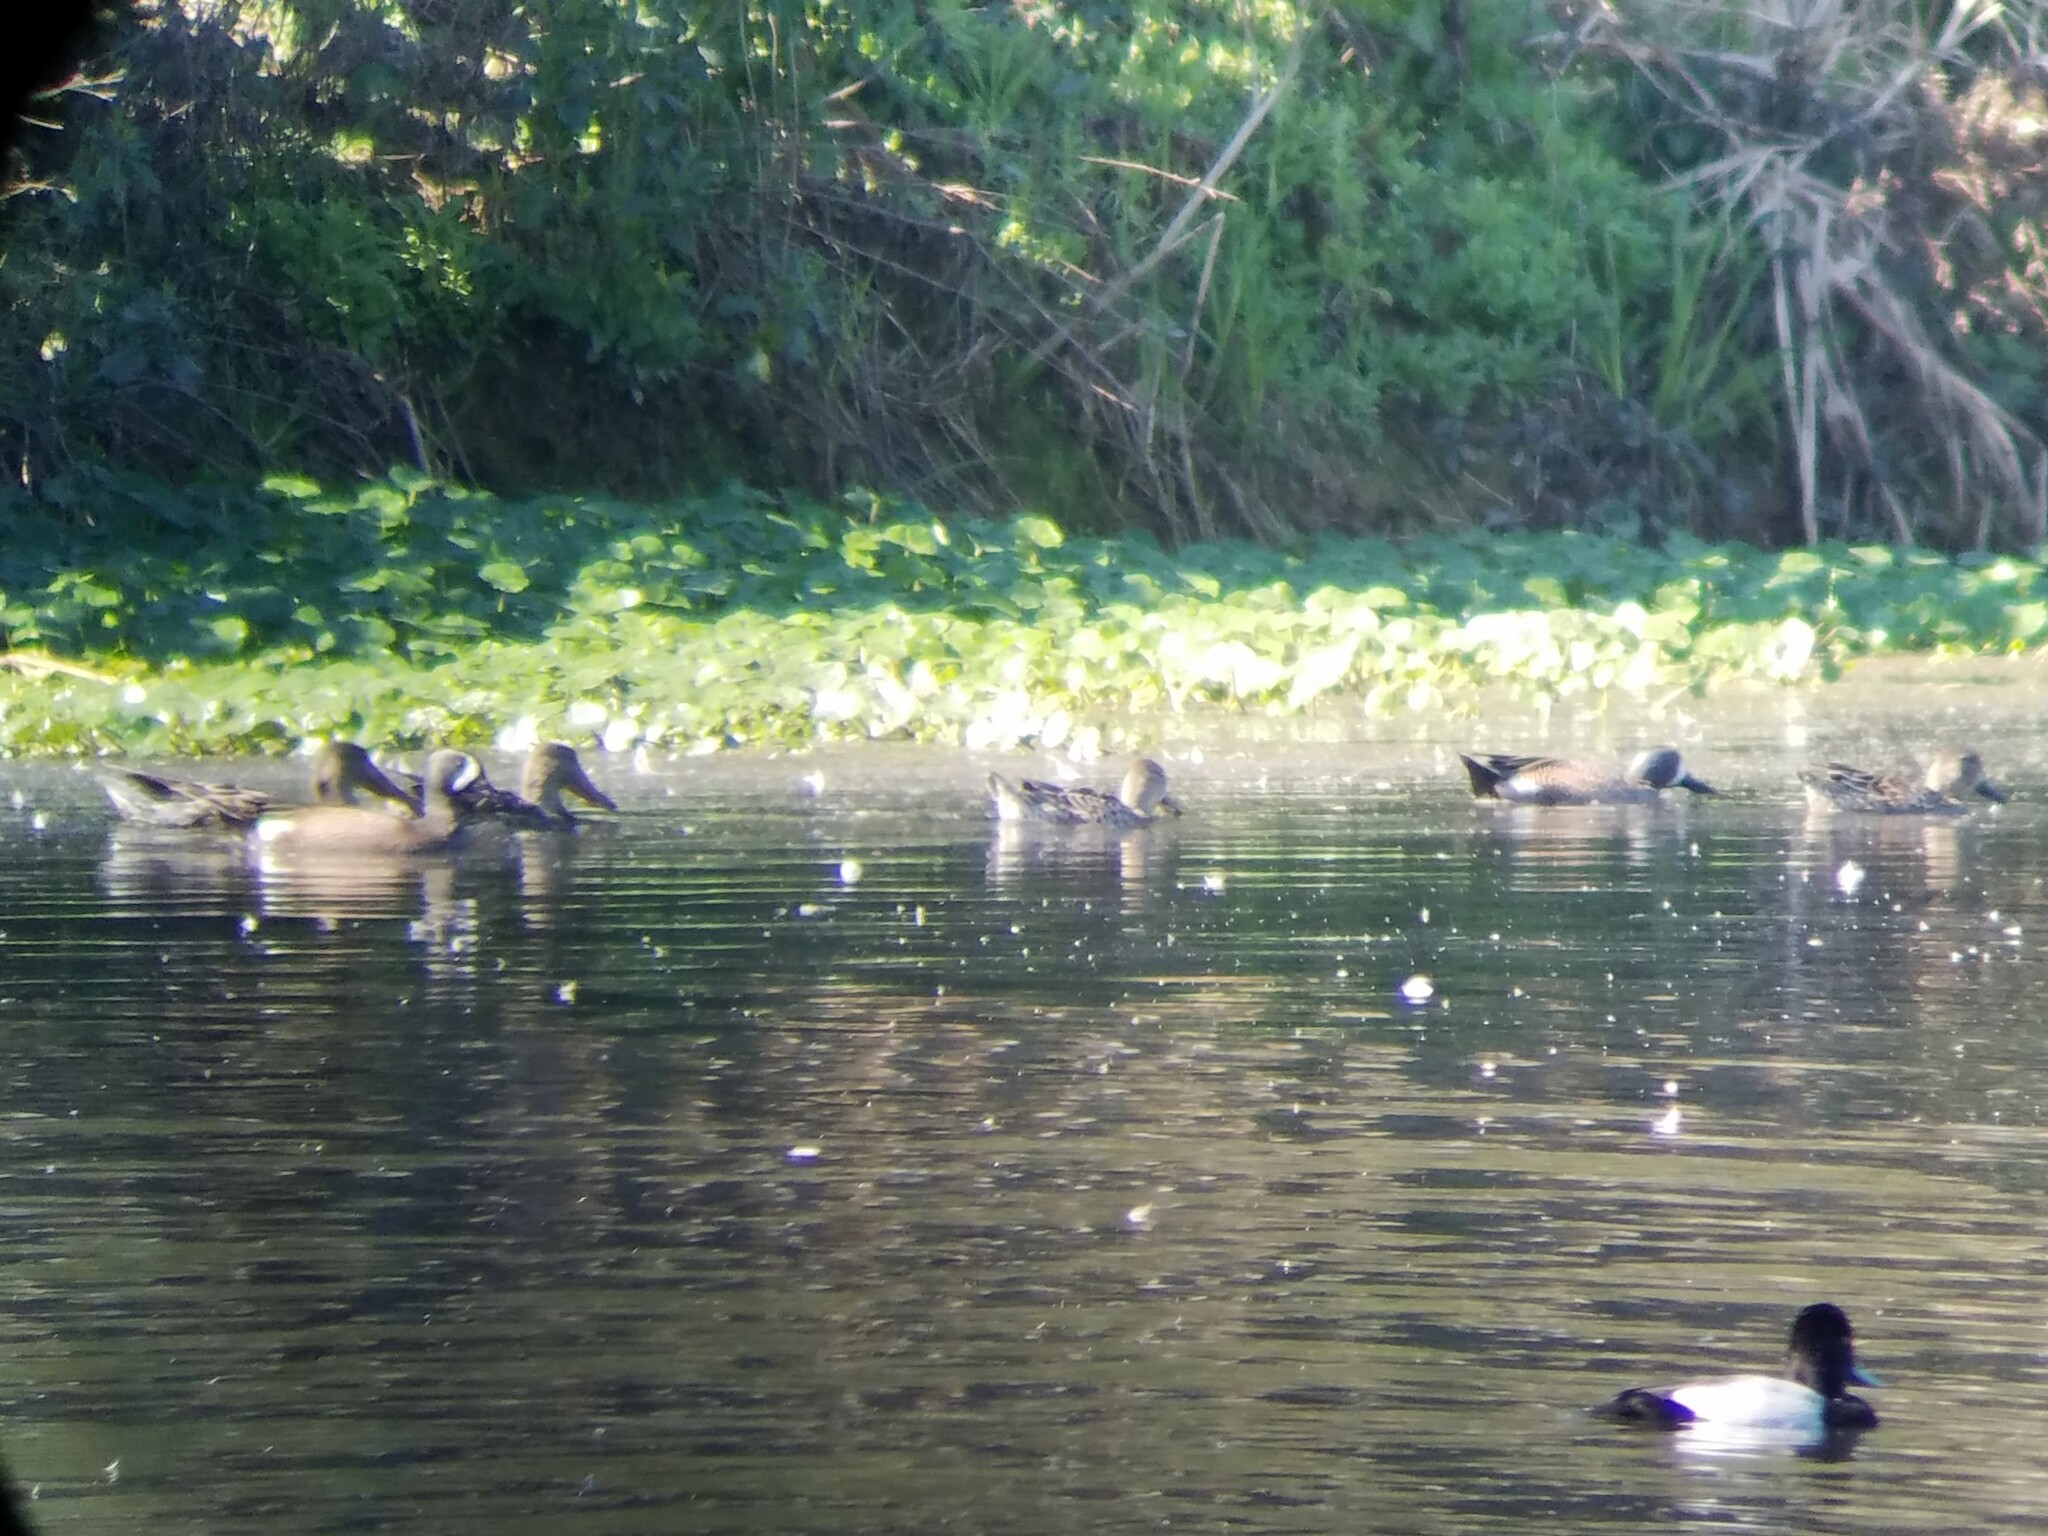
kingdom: Animalia
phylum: Chordata
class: Aves
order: Anseriformes
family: Anatidae
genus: Spatula
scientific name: Spatula discors
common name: Blue-winged teal
